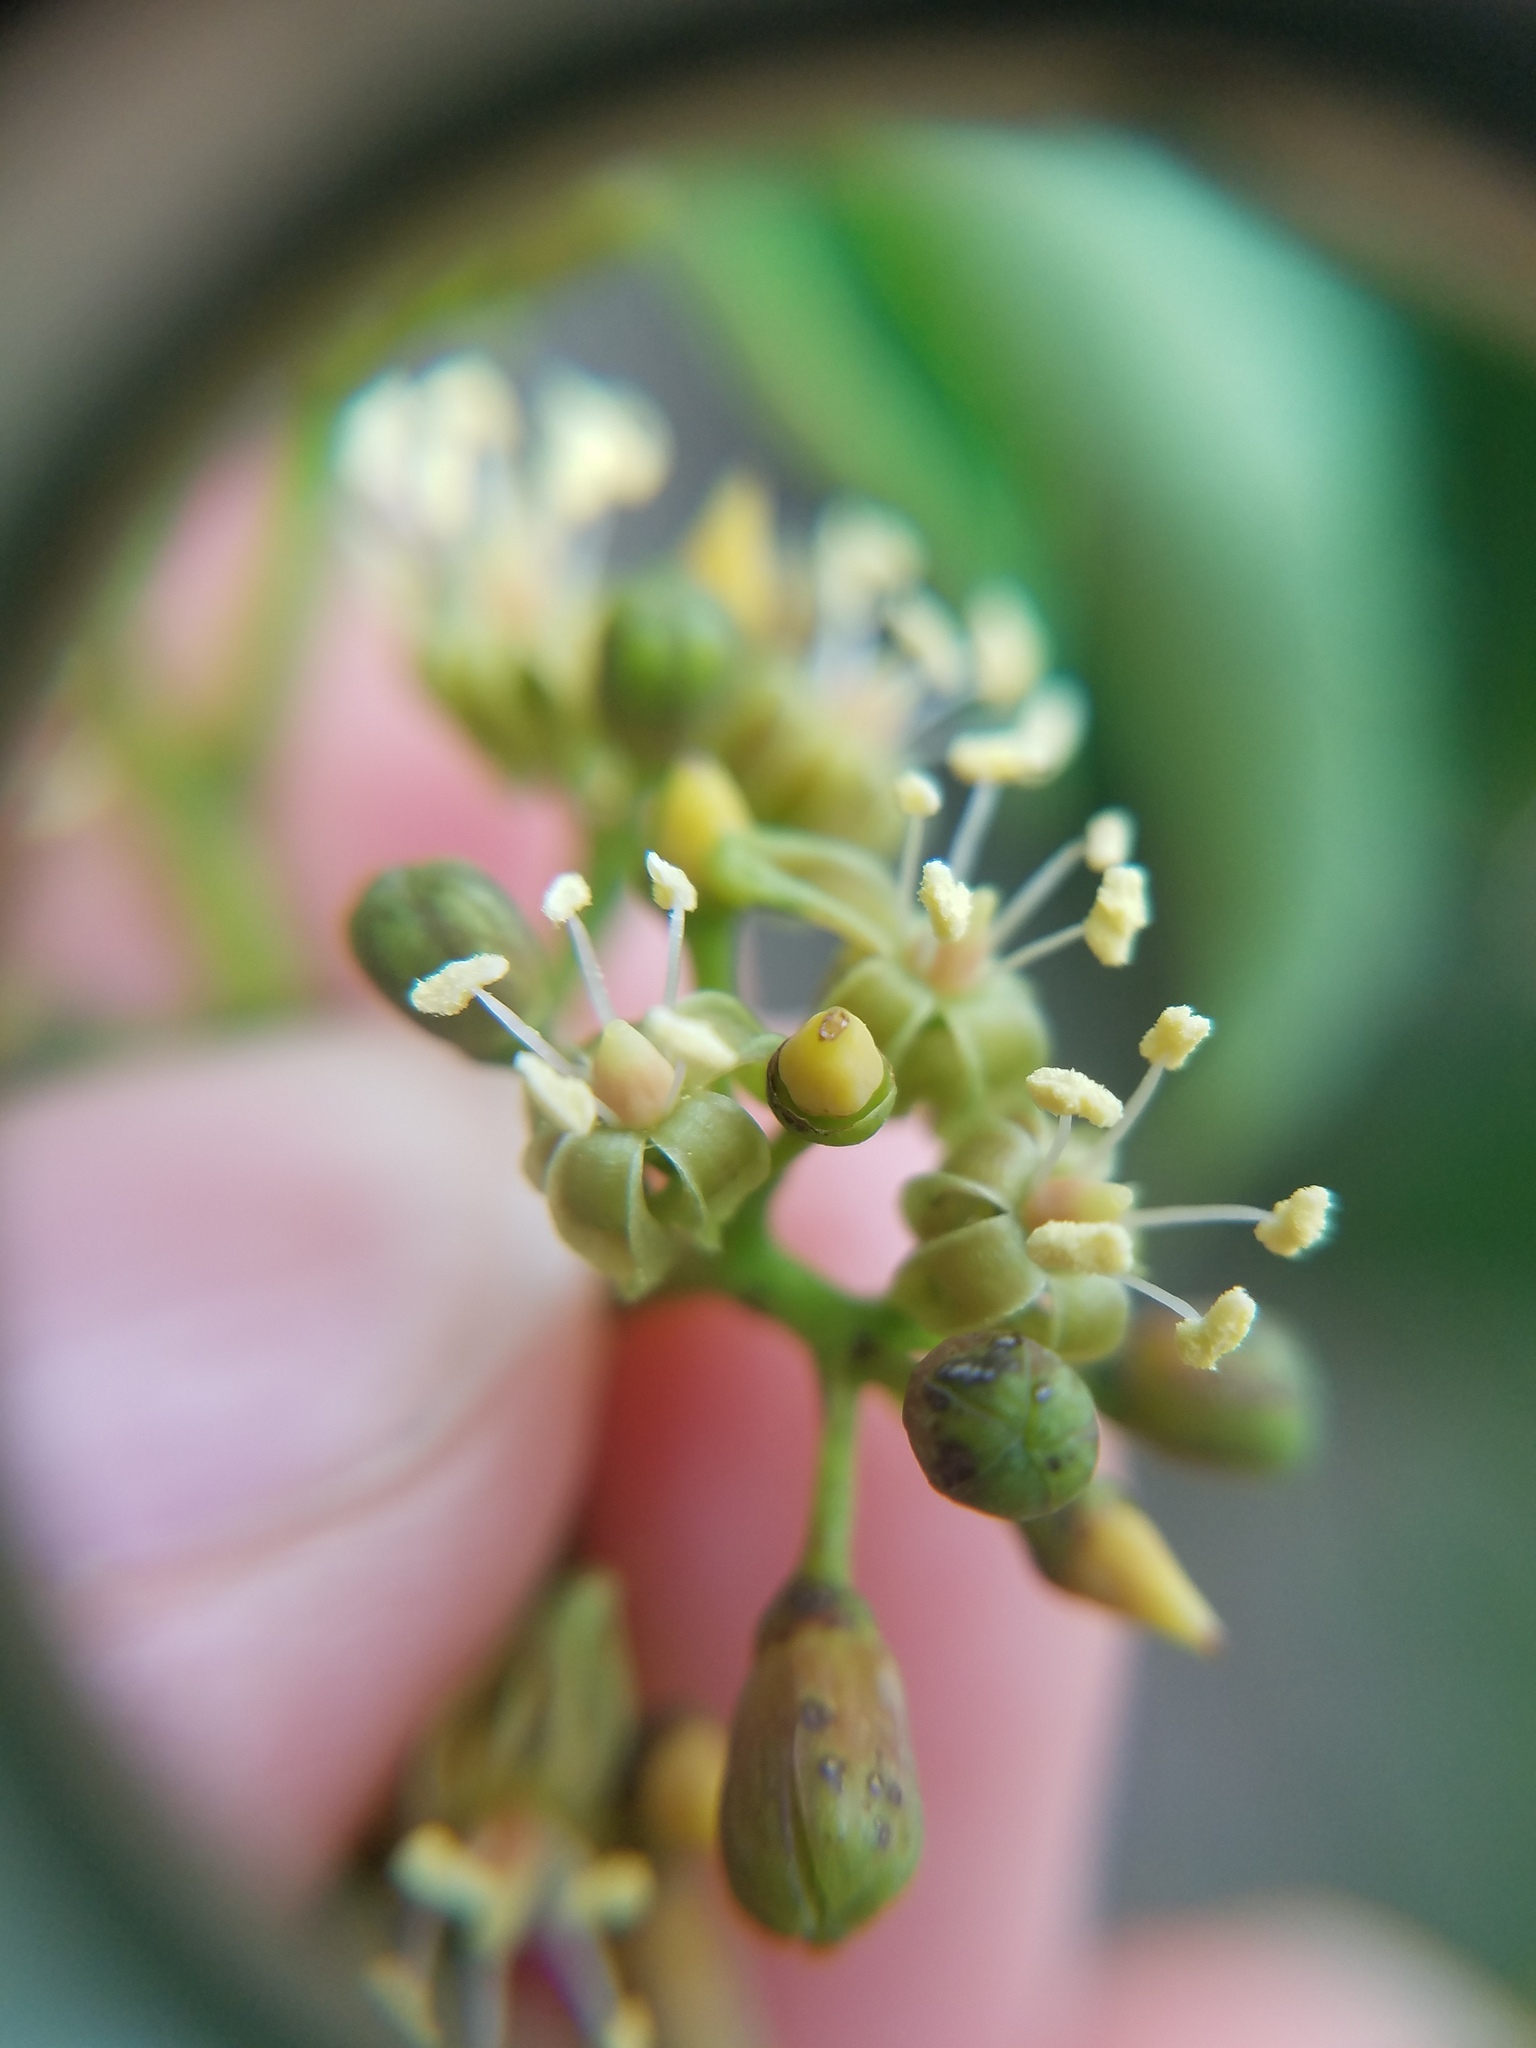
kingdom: Plantae
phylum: Tracheophyta
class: Magnoliopsida
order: Vitales
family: Vitaceae
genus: Parthenocissus
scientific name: Parthenocissus quinquefolia
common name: Virginia-creeper
